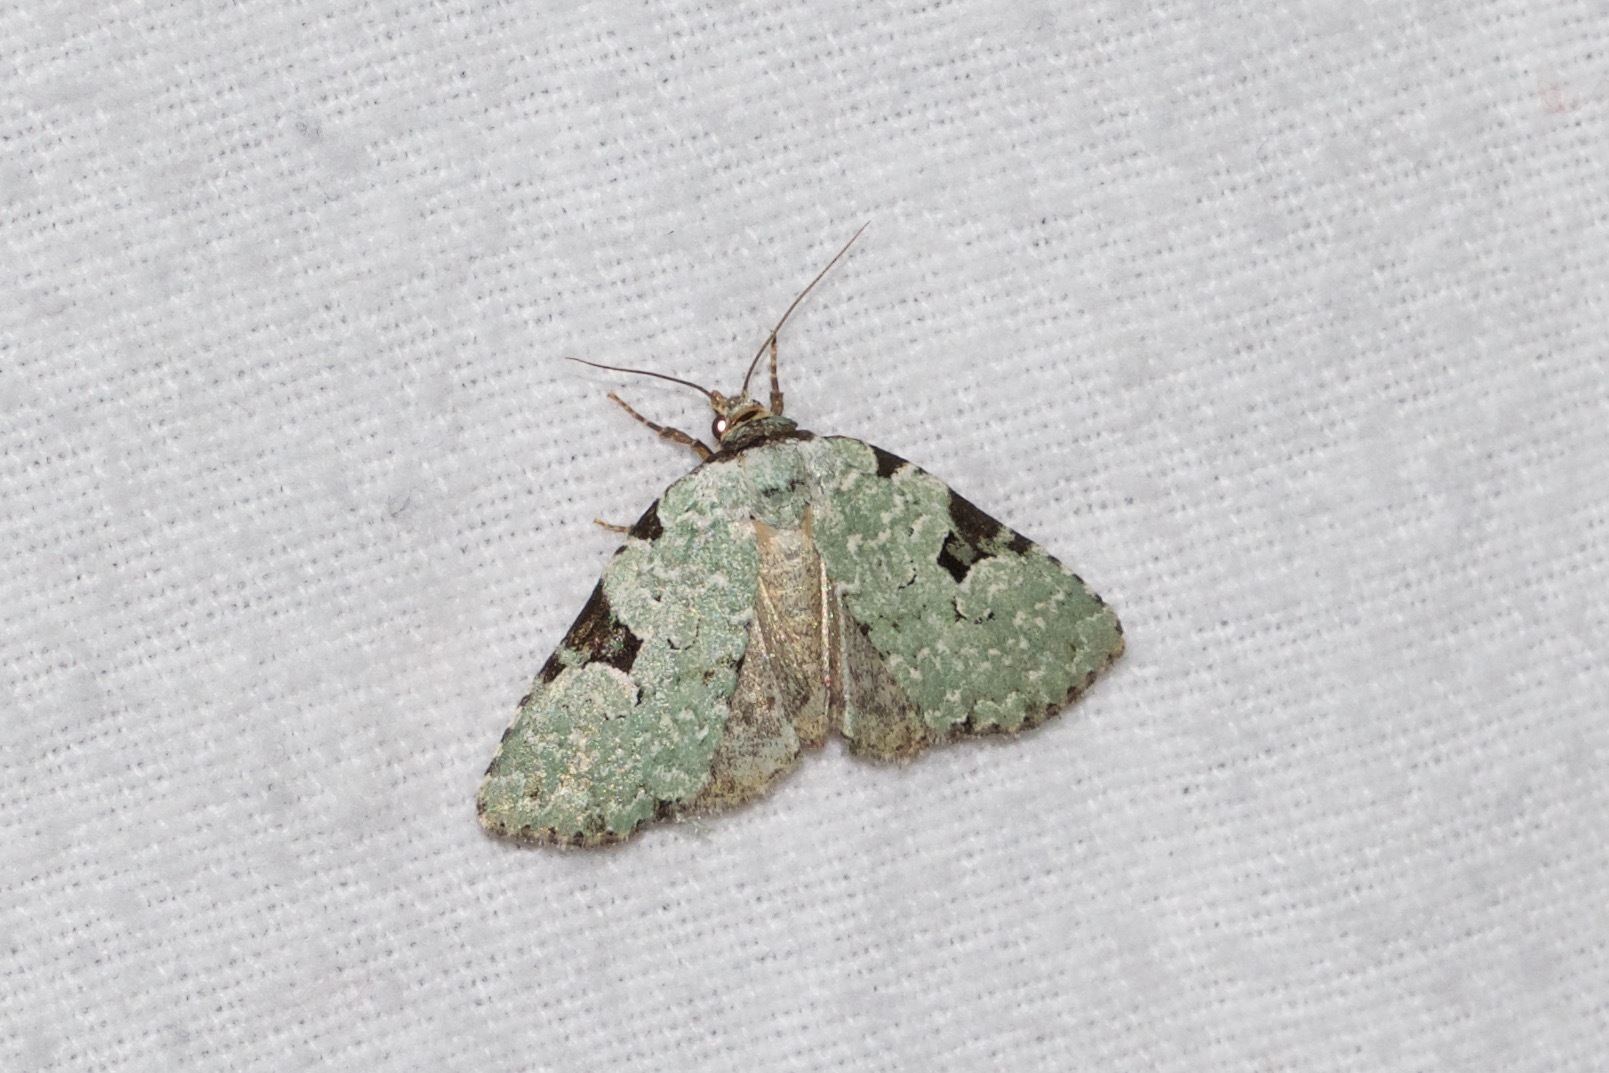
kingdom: Animalia
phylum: Arthropoda
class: Insecta
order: Lepidoptera
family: Noctuidae
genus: Leuconycta
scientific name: Leuconycta diphteroides
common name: Green leuconycta moth
